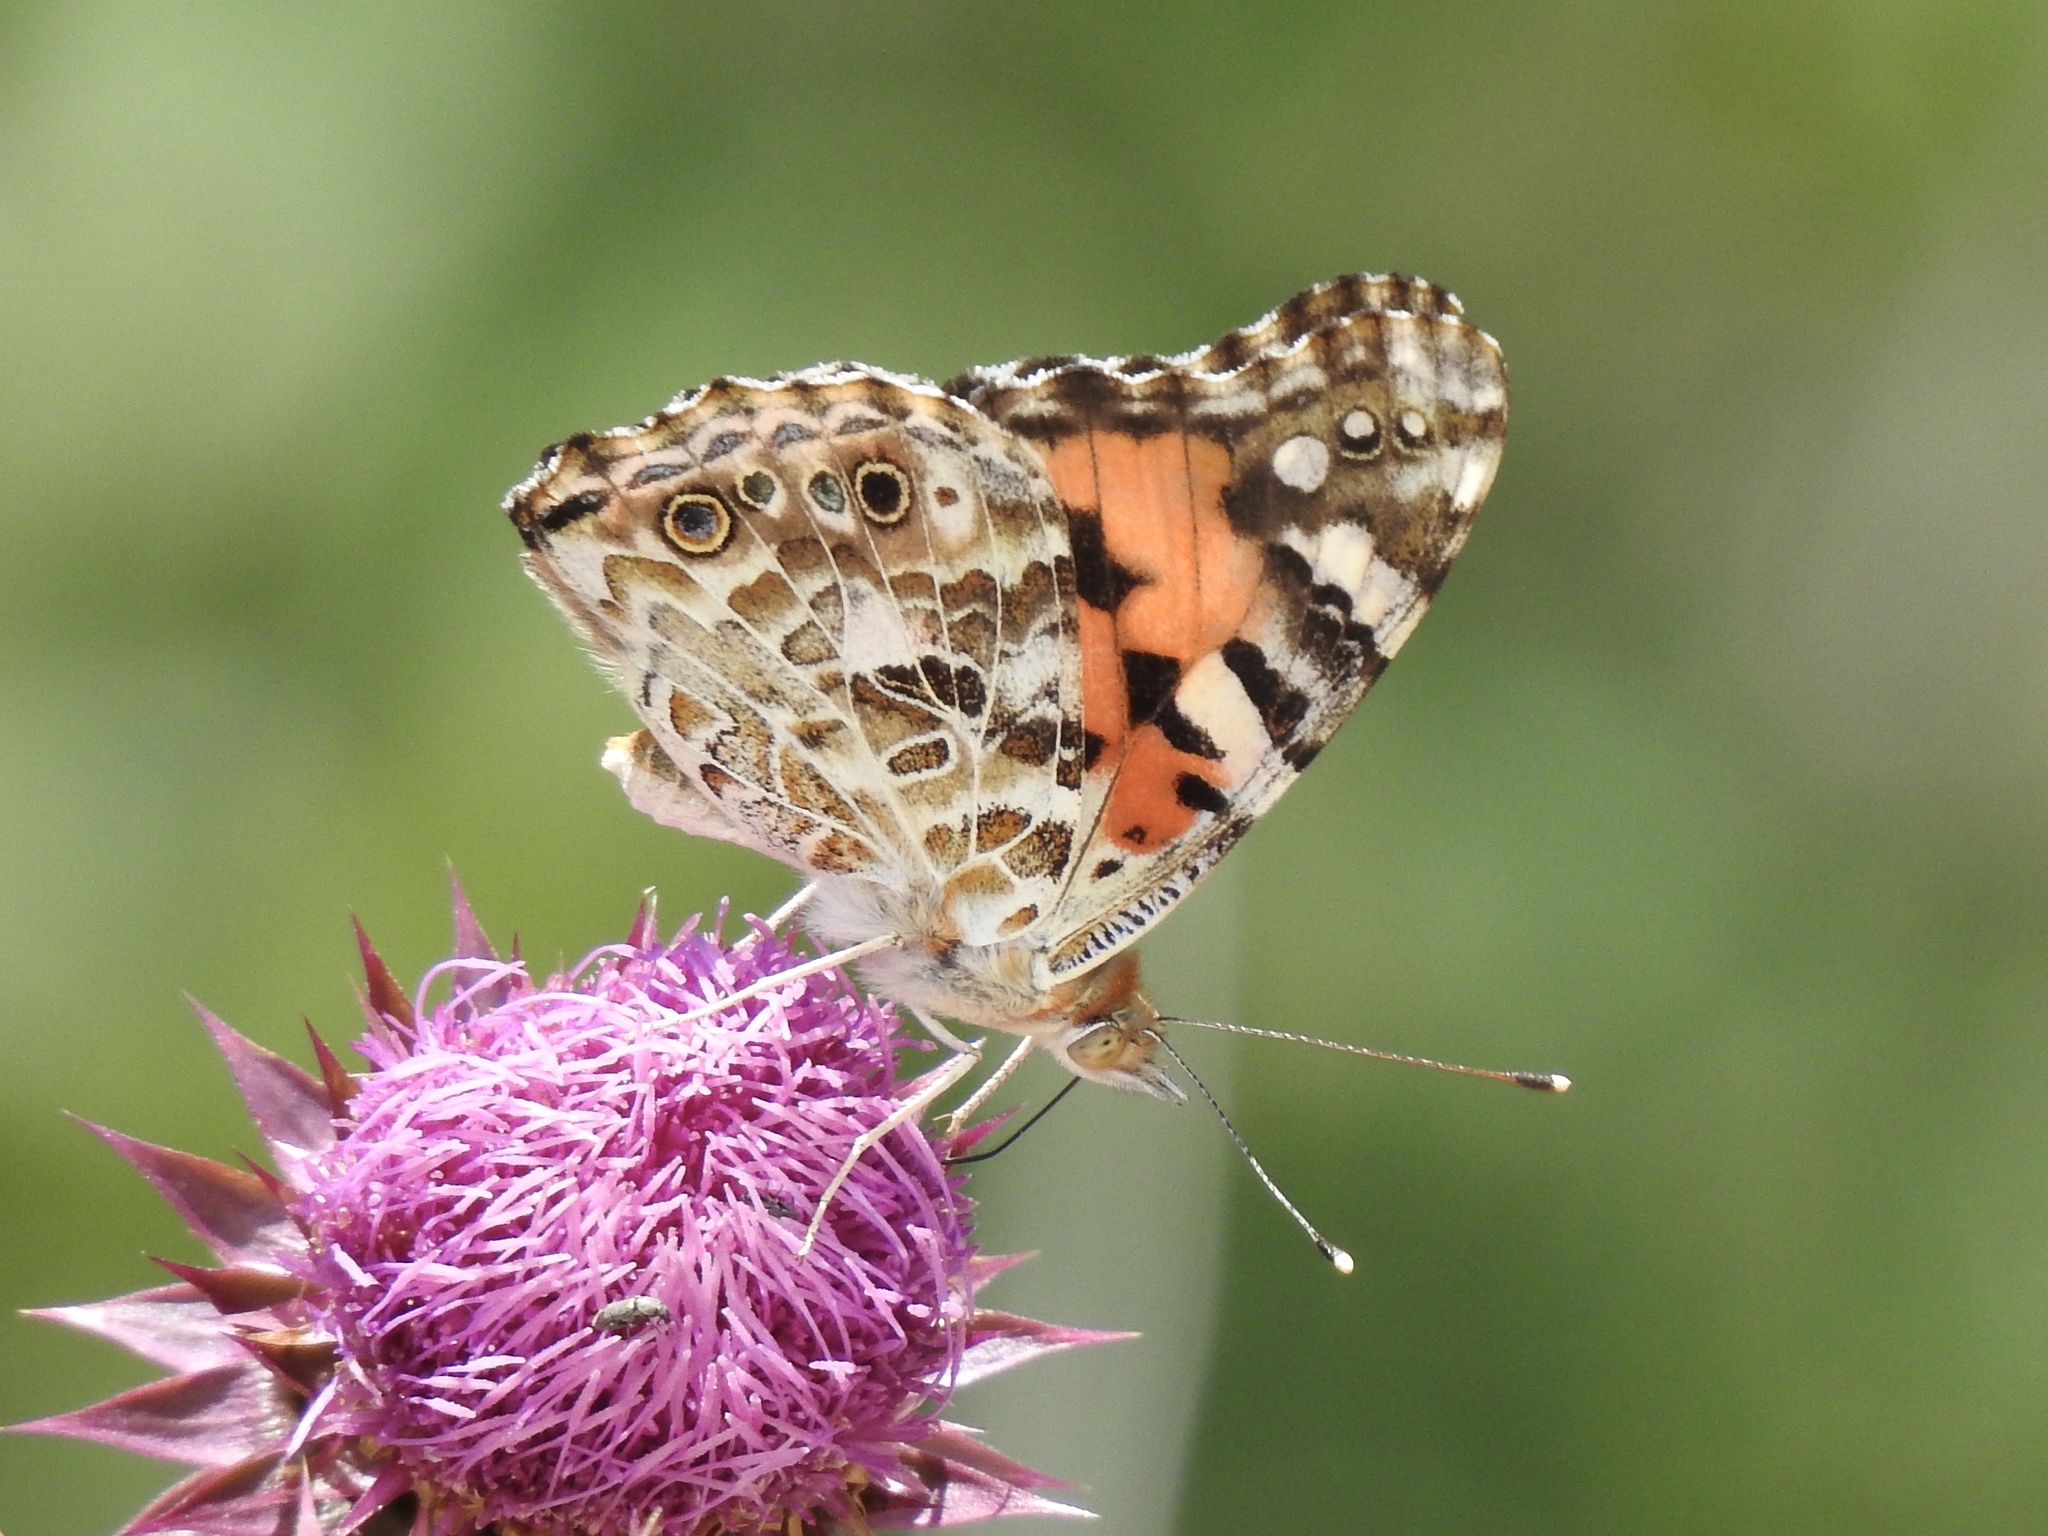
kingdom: Animalia
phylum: Arthropoda
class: Insecta
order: Lepidoptera
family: Nymphalidae
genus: Vanessa
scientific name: Vanessa cardui
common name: Painted lady
